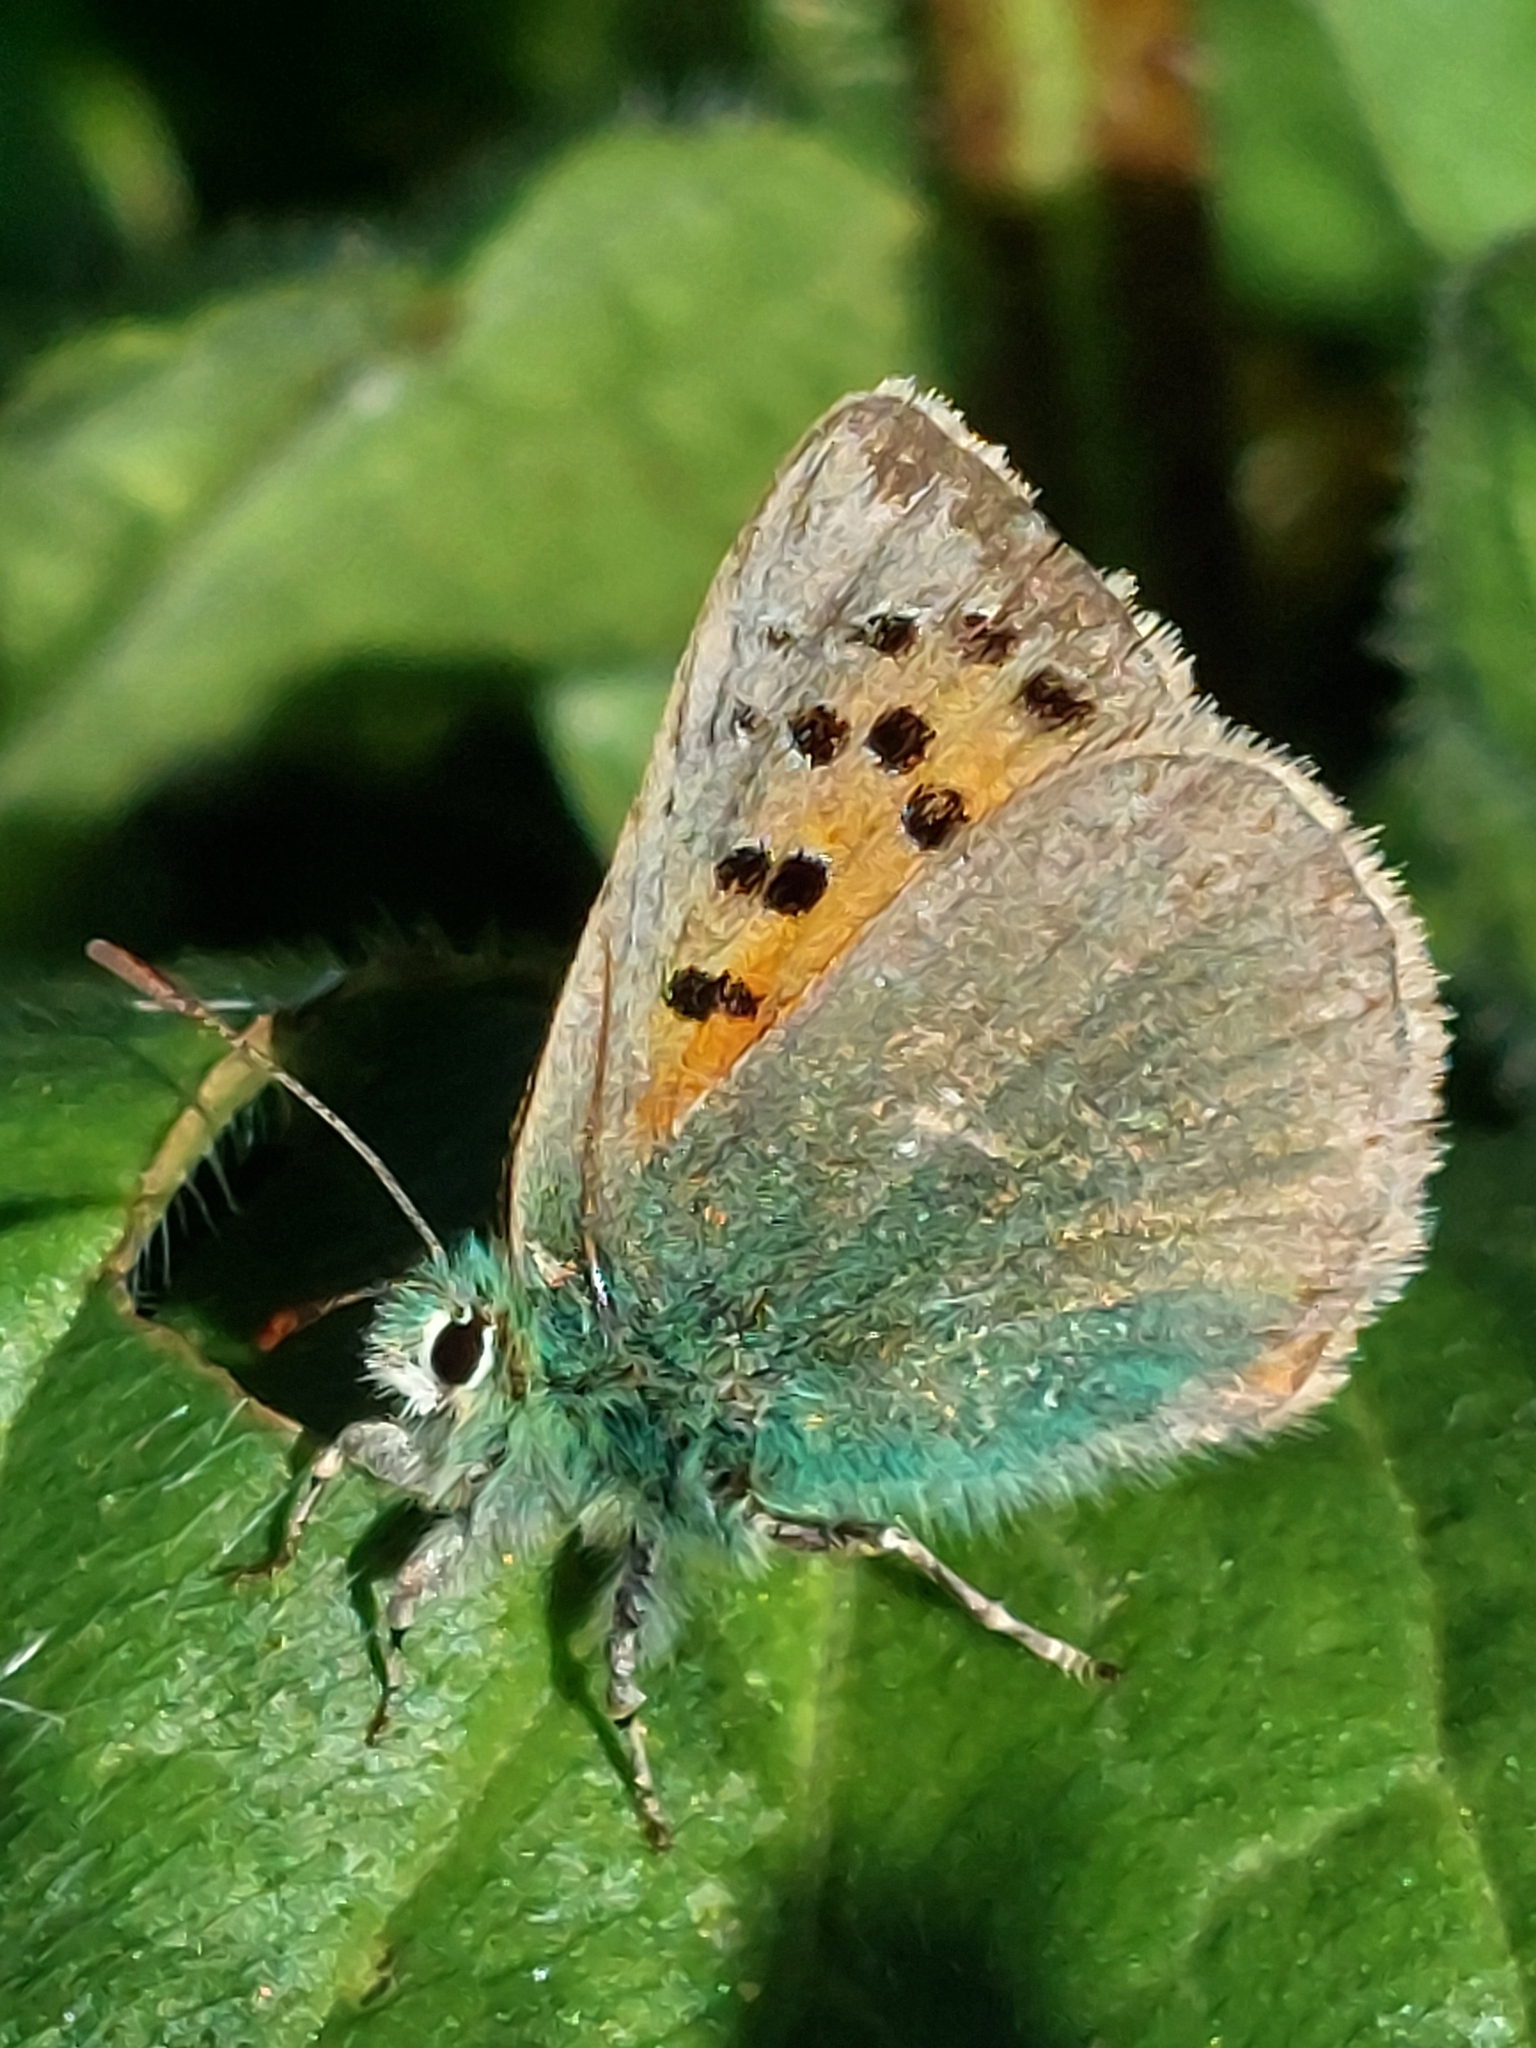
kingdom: Animalia
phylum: Arthropoda
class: Insecta
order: Lepidoptera
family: Lycaenidae
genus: Tomares
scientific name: Tomares ballus
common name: Provence hairstreak
